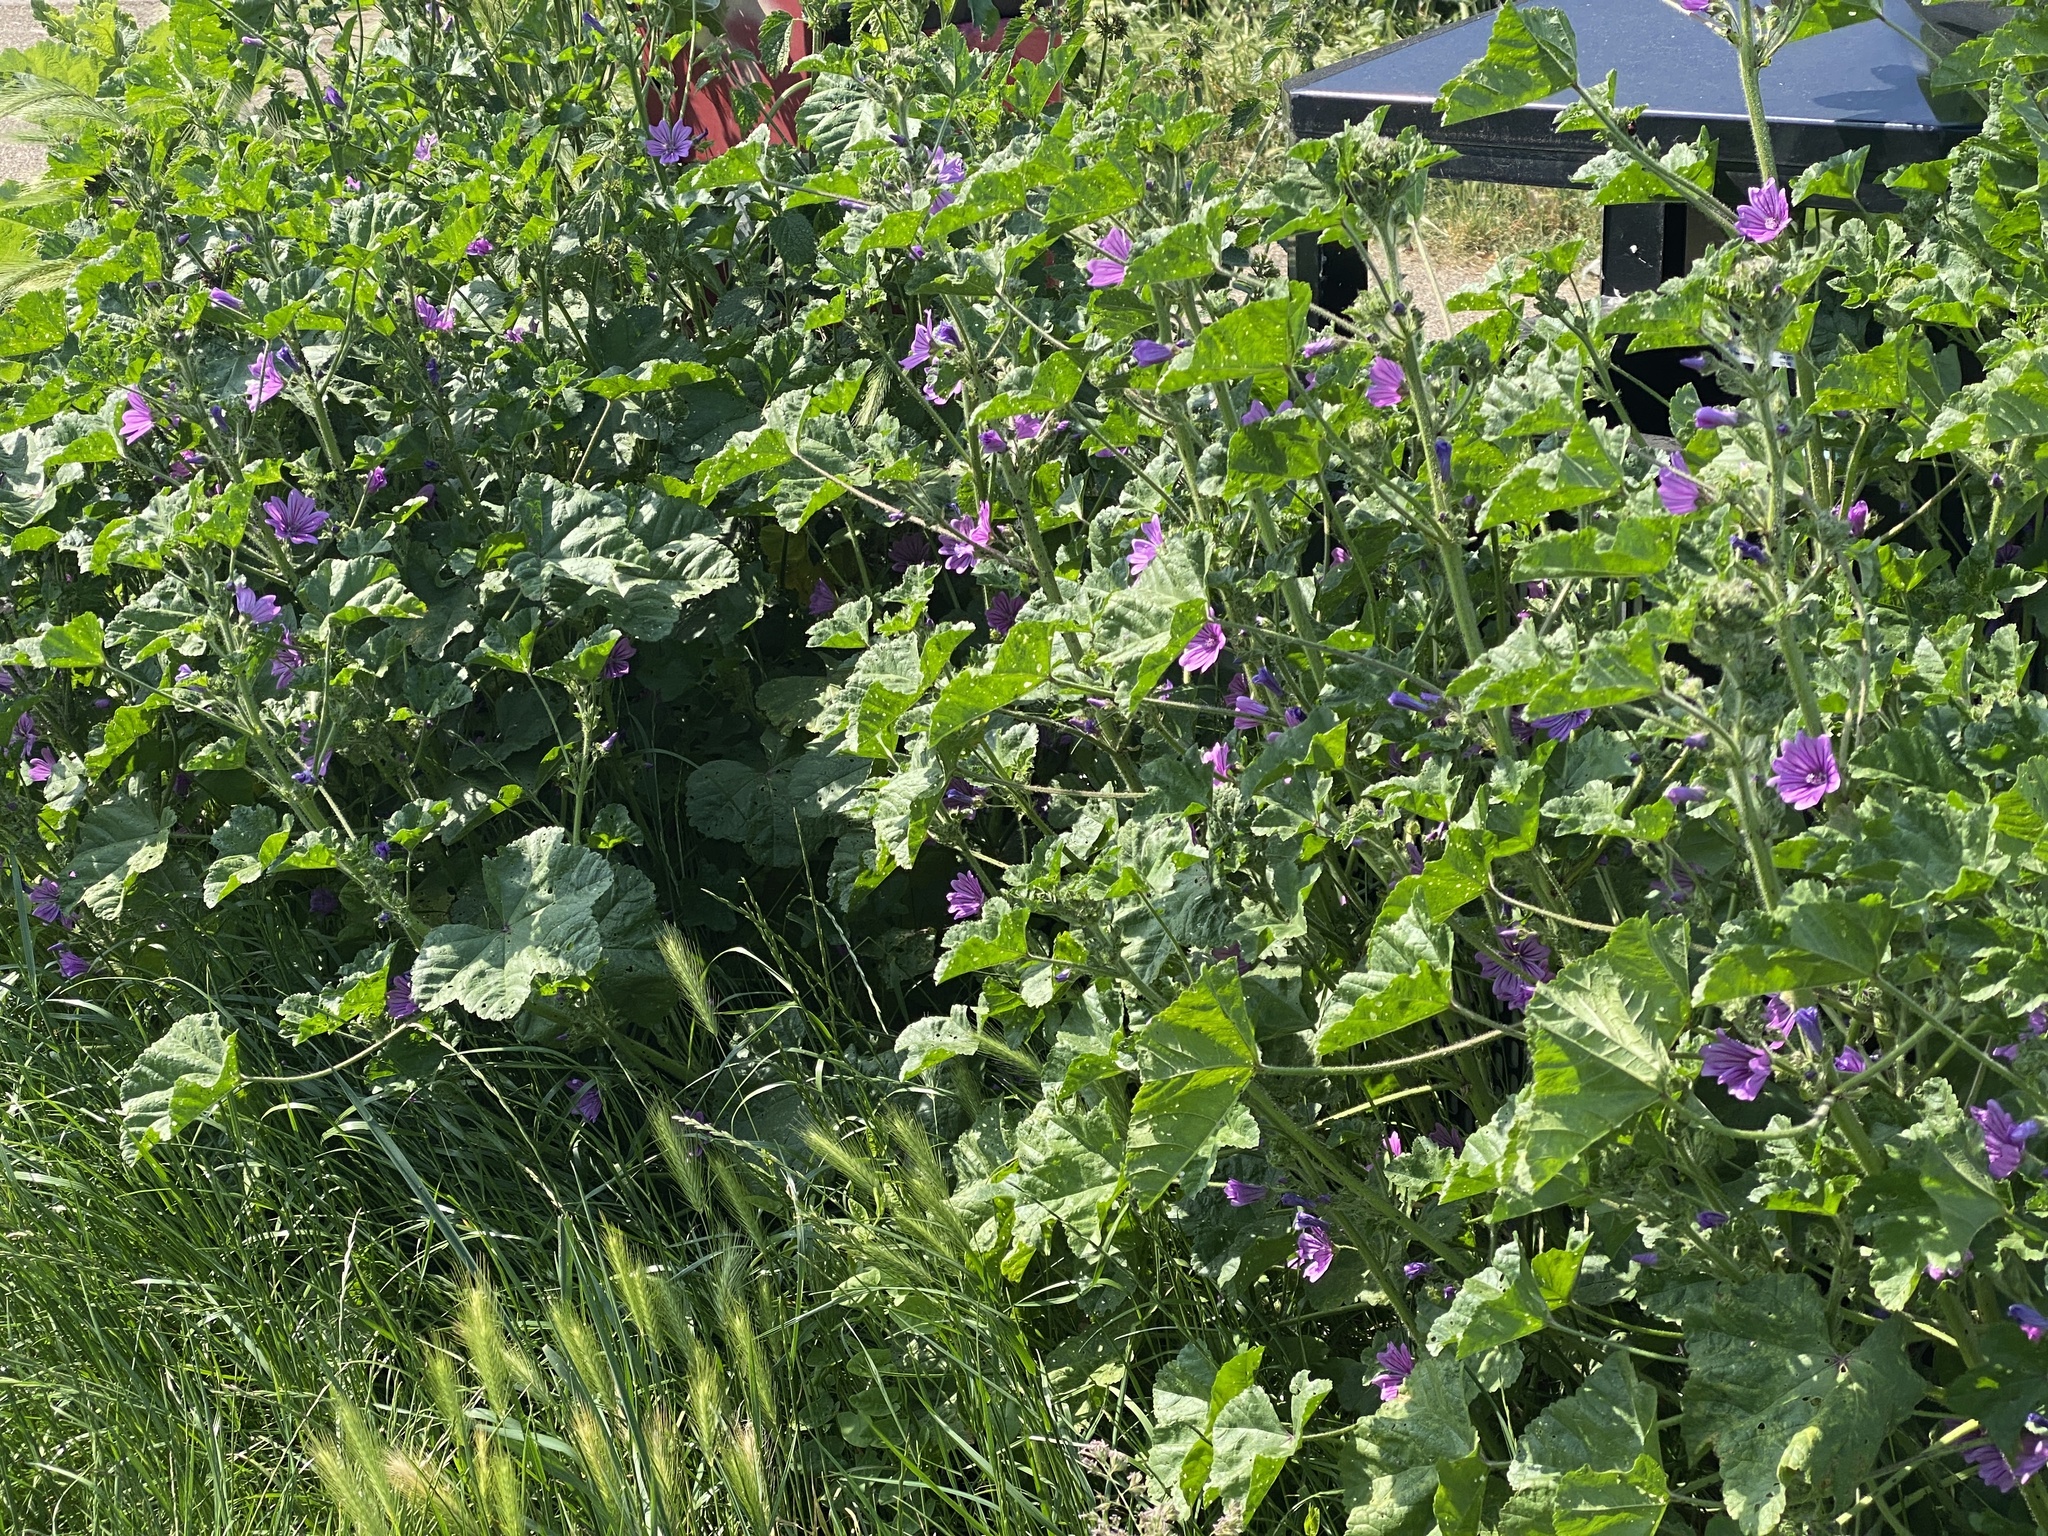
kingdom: Plantae
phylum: Tracheophyta
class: Magnoliopsida
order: Malvales
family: Malvaceae
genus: Malva
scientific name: Malva sylvestris
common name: Common mallow
